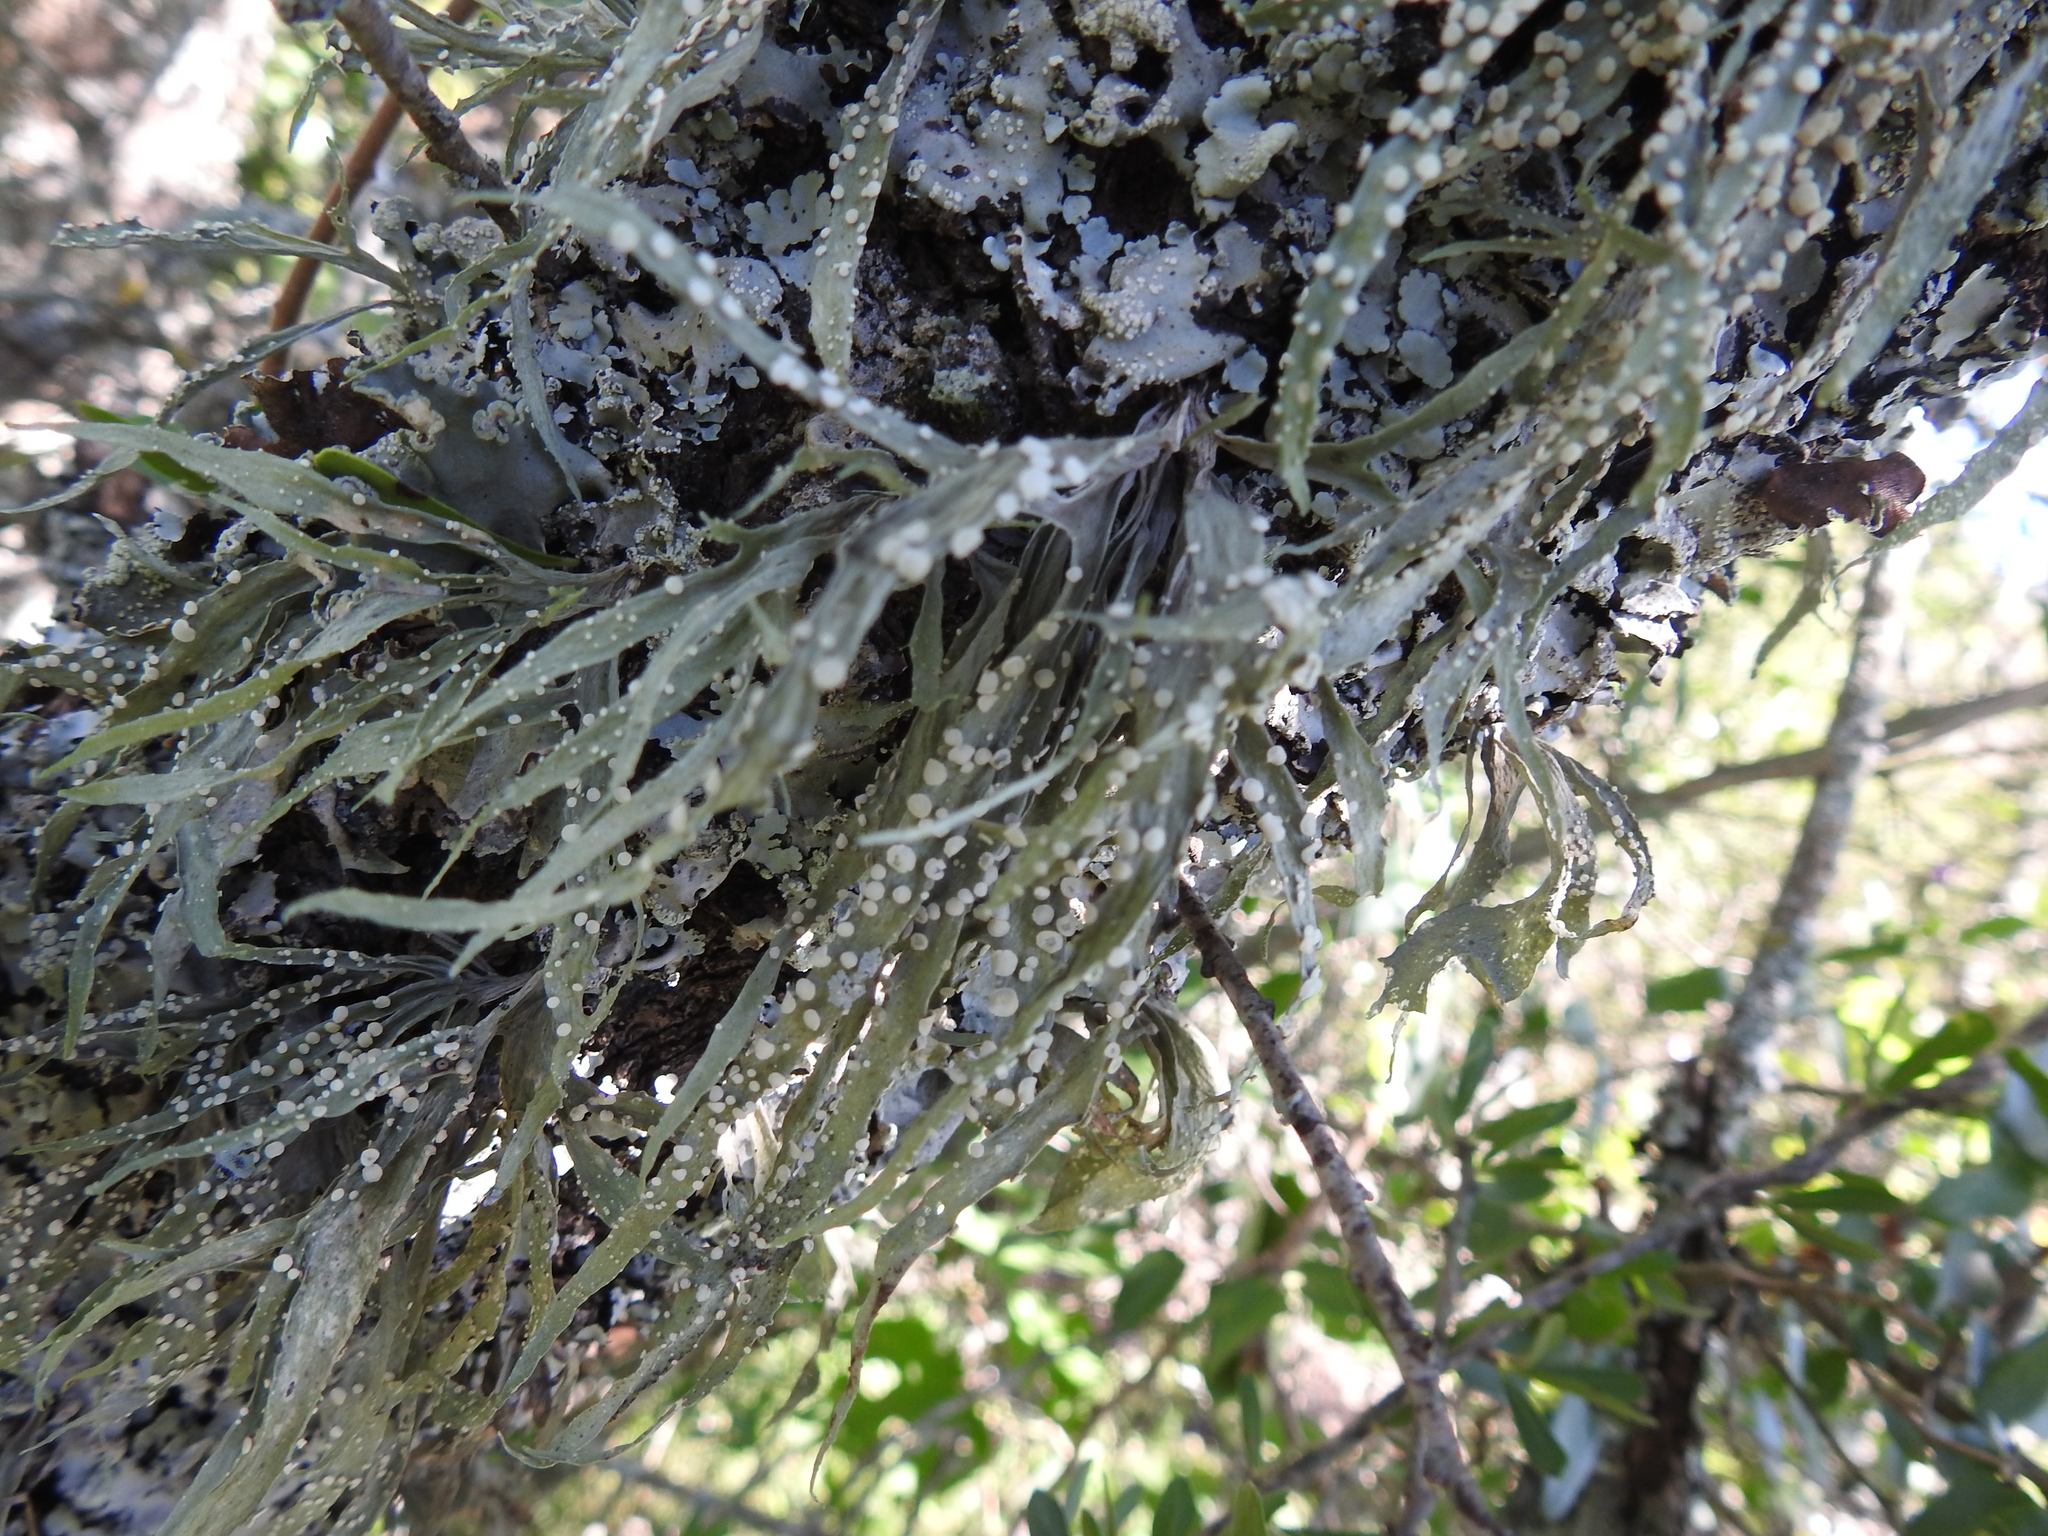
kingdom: Fungi
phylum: Ascomycota
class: Lecanoromycetes
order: Lecanorales
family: Ramalinaceae
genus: Ramalina
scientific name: Ramalina celastri
